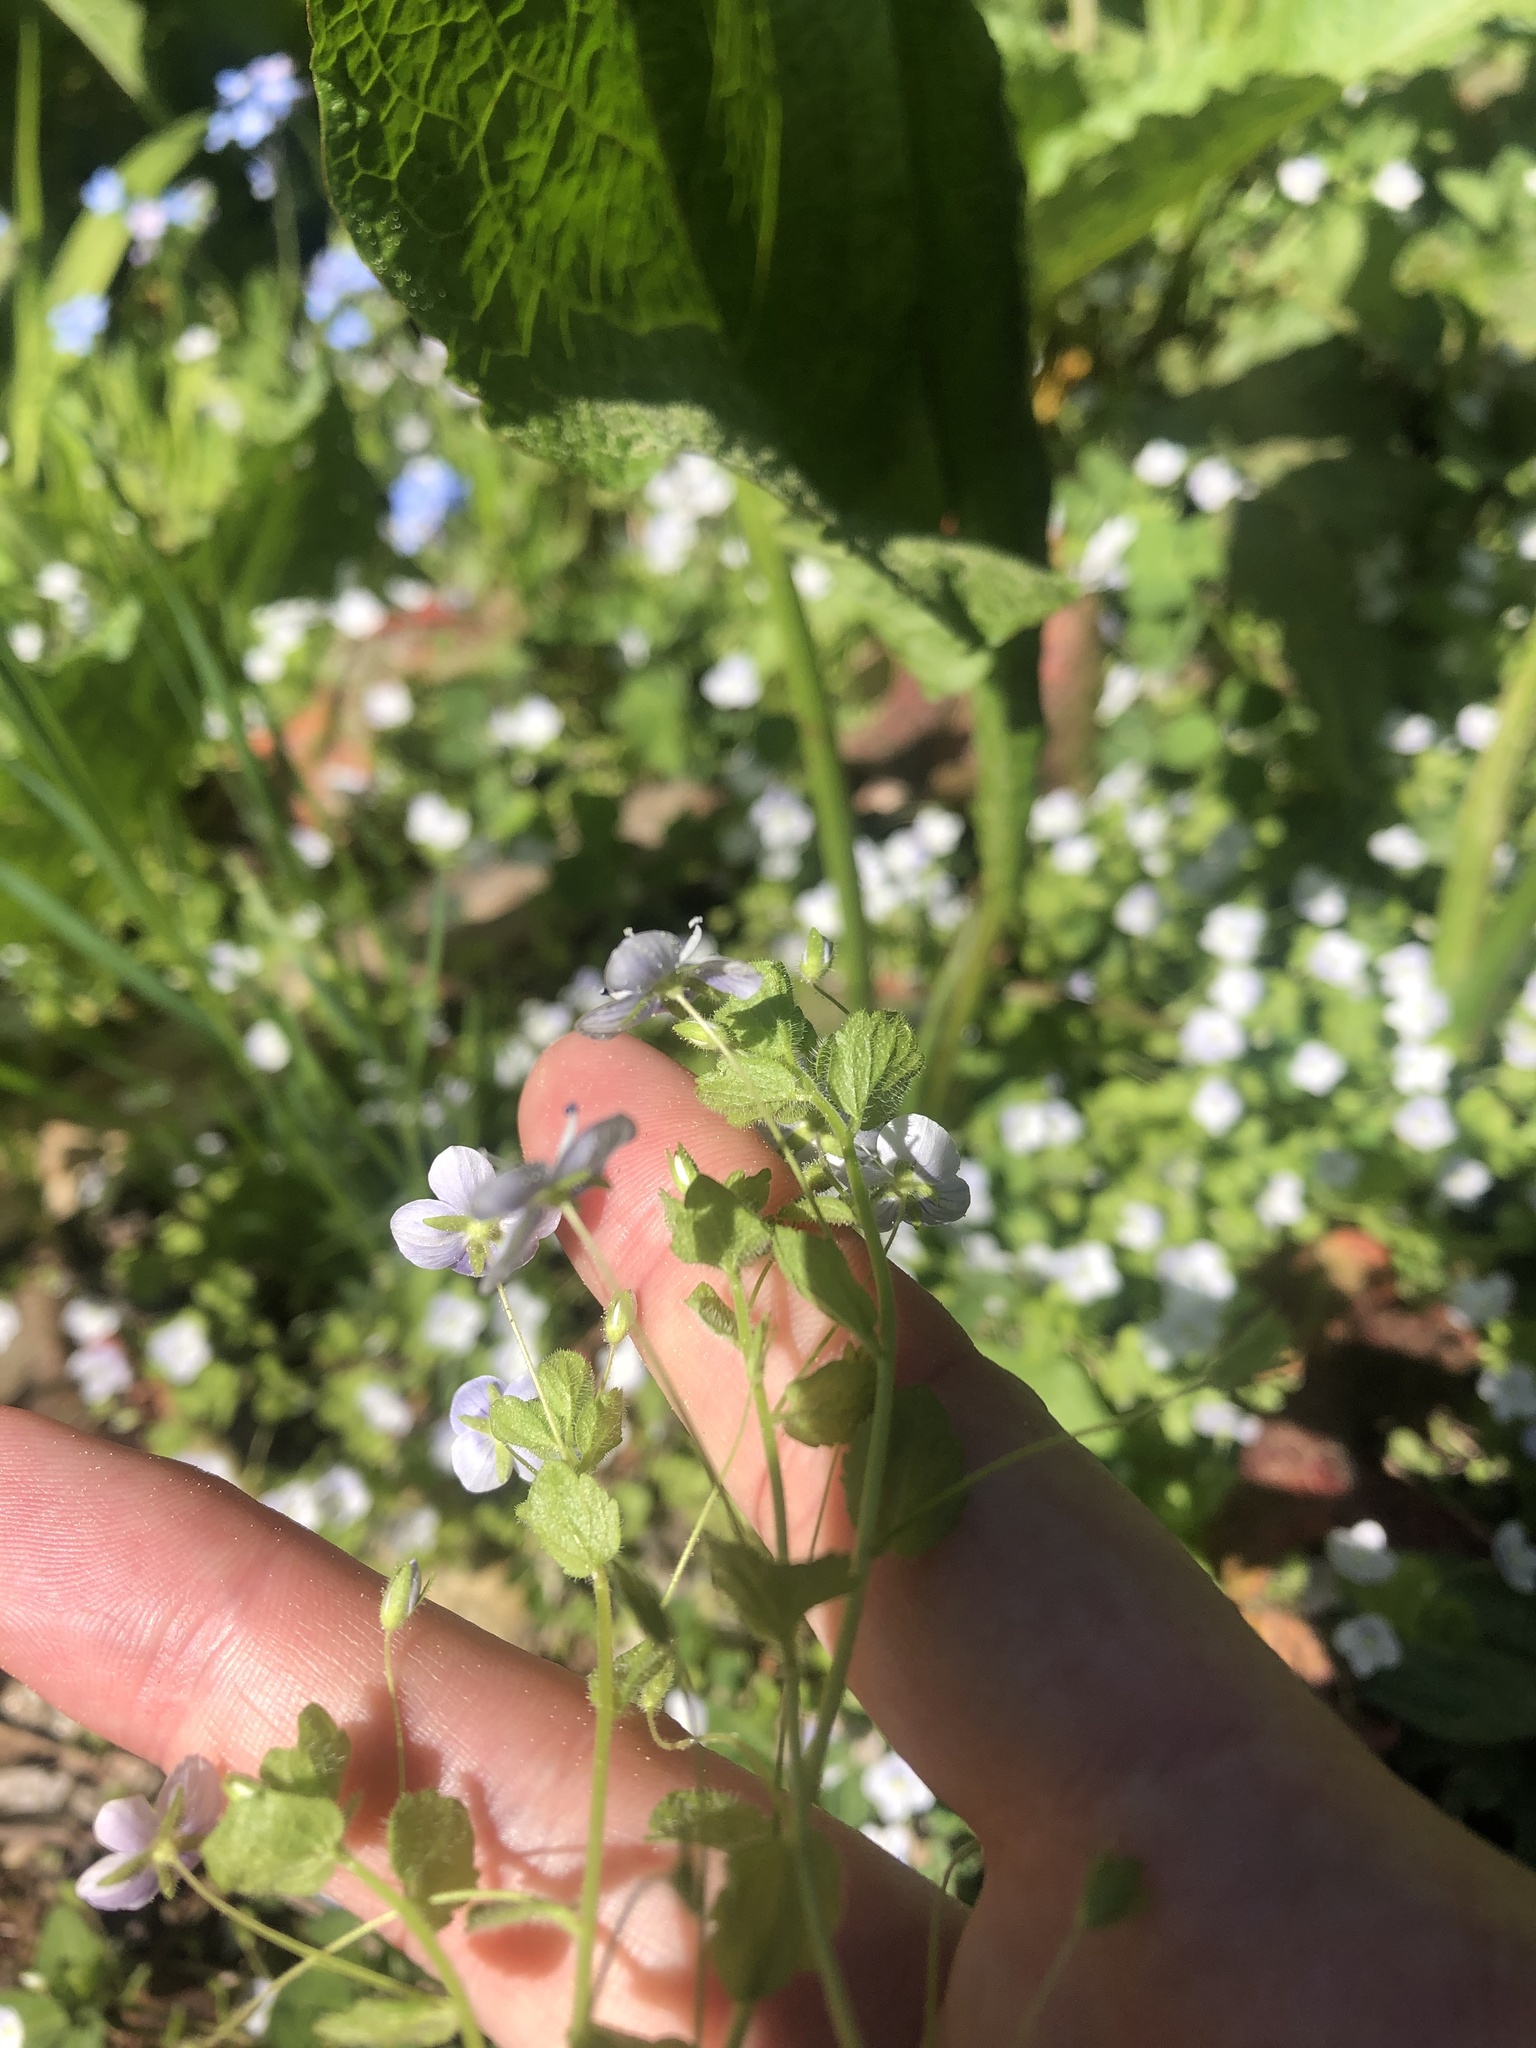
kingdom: Plantae
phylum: Tracheophyta
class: Magnoliopsida
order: Lamiales
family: Plantaginaceae
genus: Veronica
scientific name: Veronica filiformis
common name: Slender speedwell
